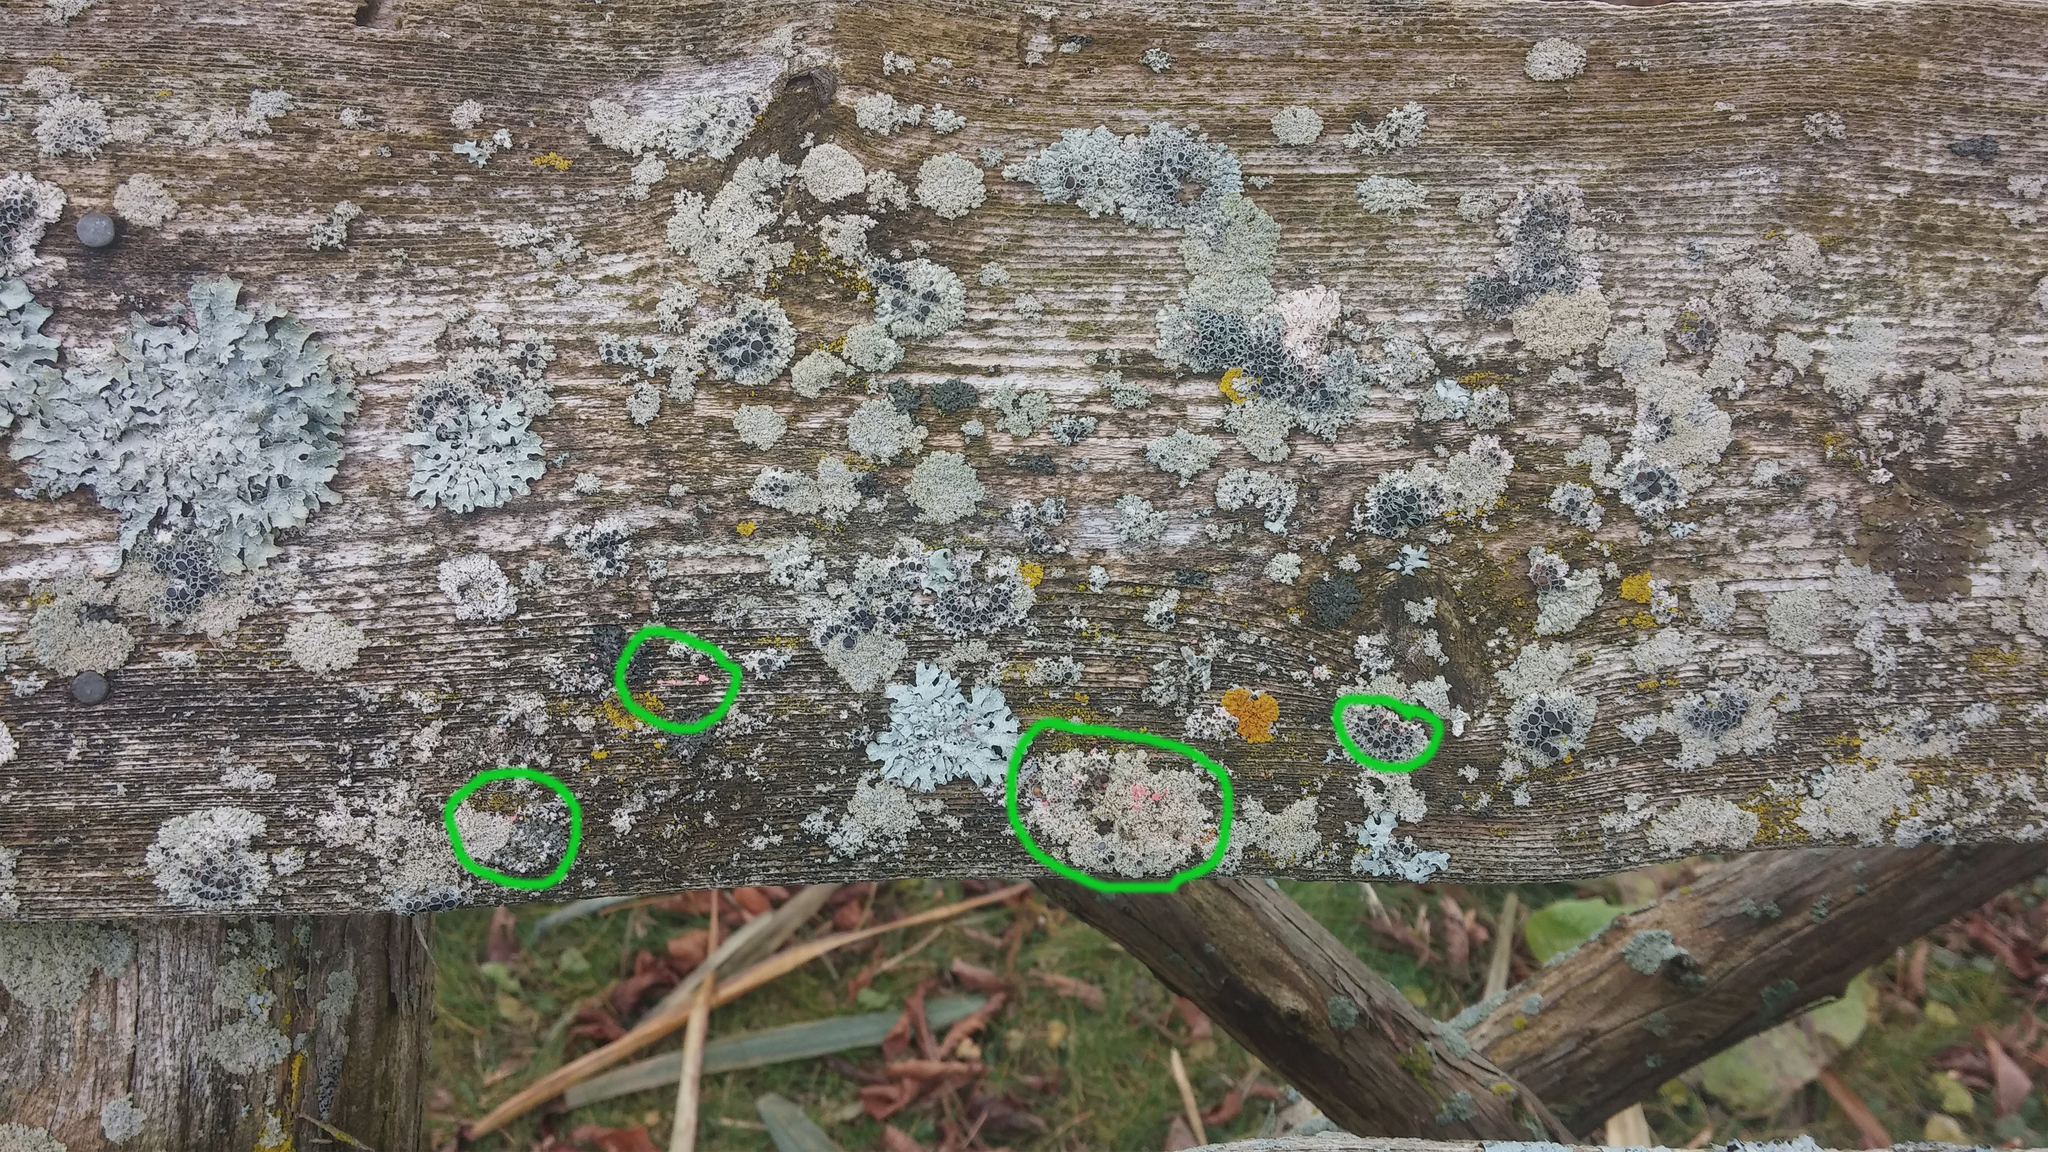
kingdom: Fungi
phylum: Ascomycota
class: Sordariomycetes
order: Hypocreales
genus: Illosporiopsis
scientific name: Illosporiopsis christiansenii
